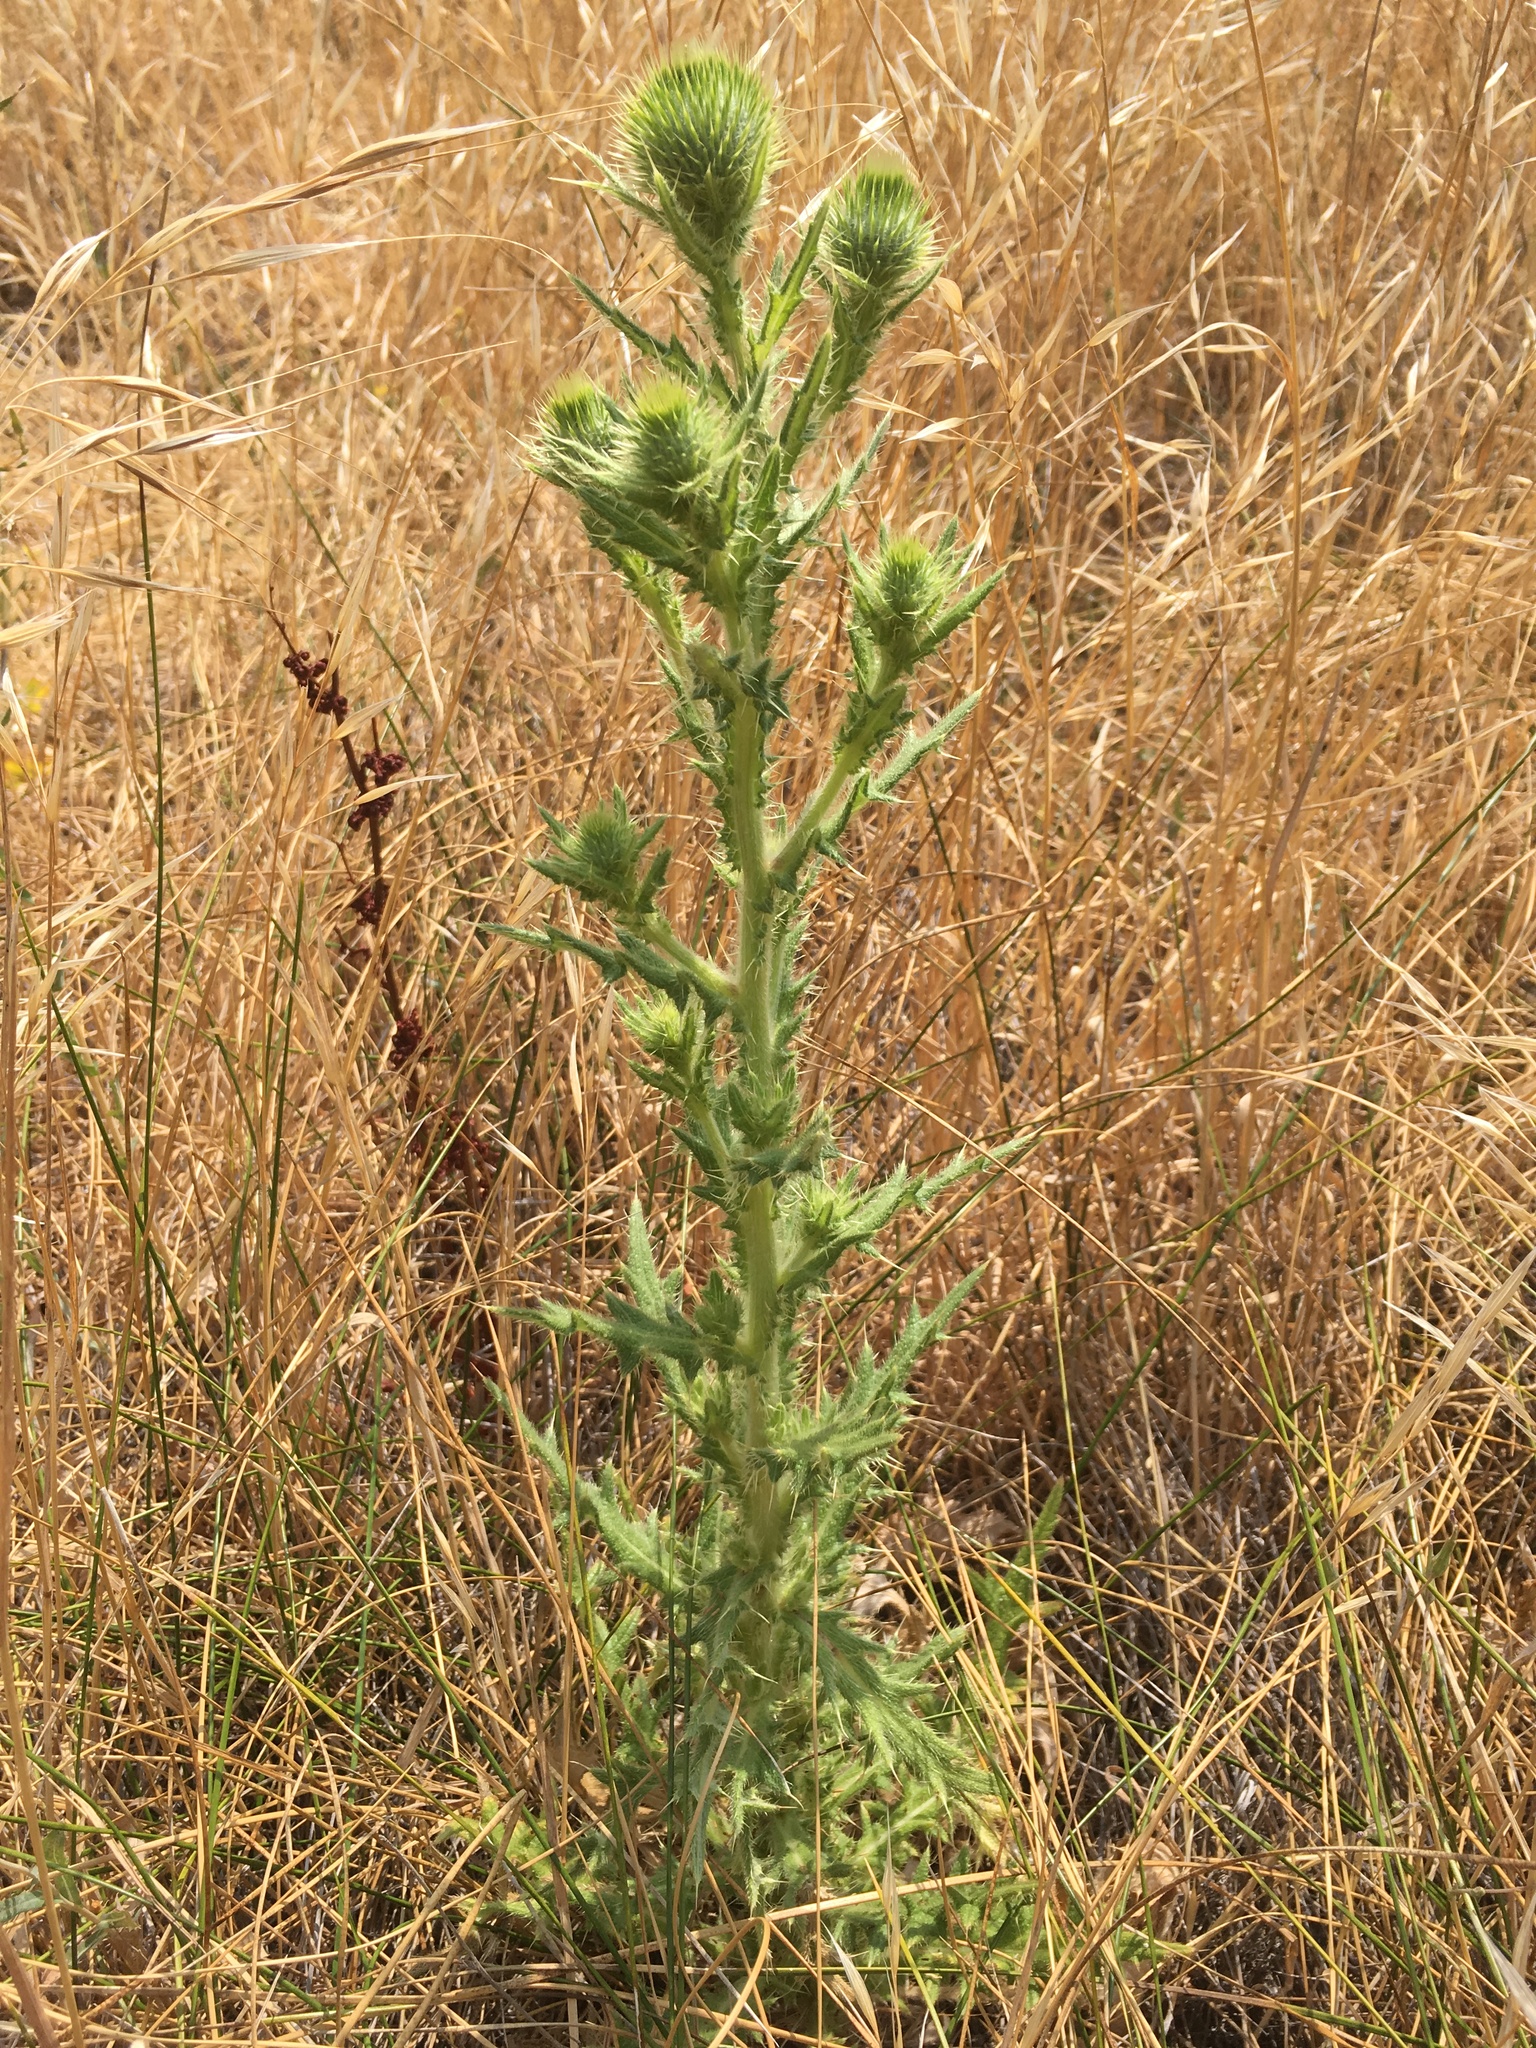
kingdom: Plantae
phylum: Tracheophyta
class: Magnoliopsida
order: Asterales
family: Asteraceae
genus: Cirsium
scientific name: Cirsium vulgare
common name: Bull thistle
